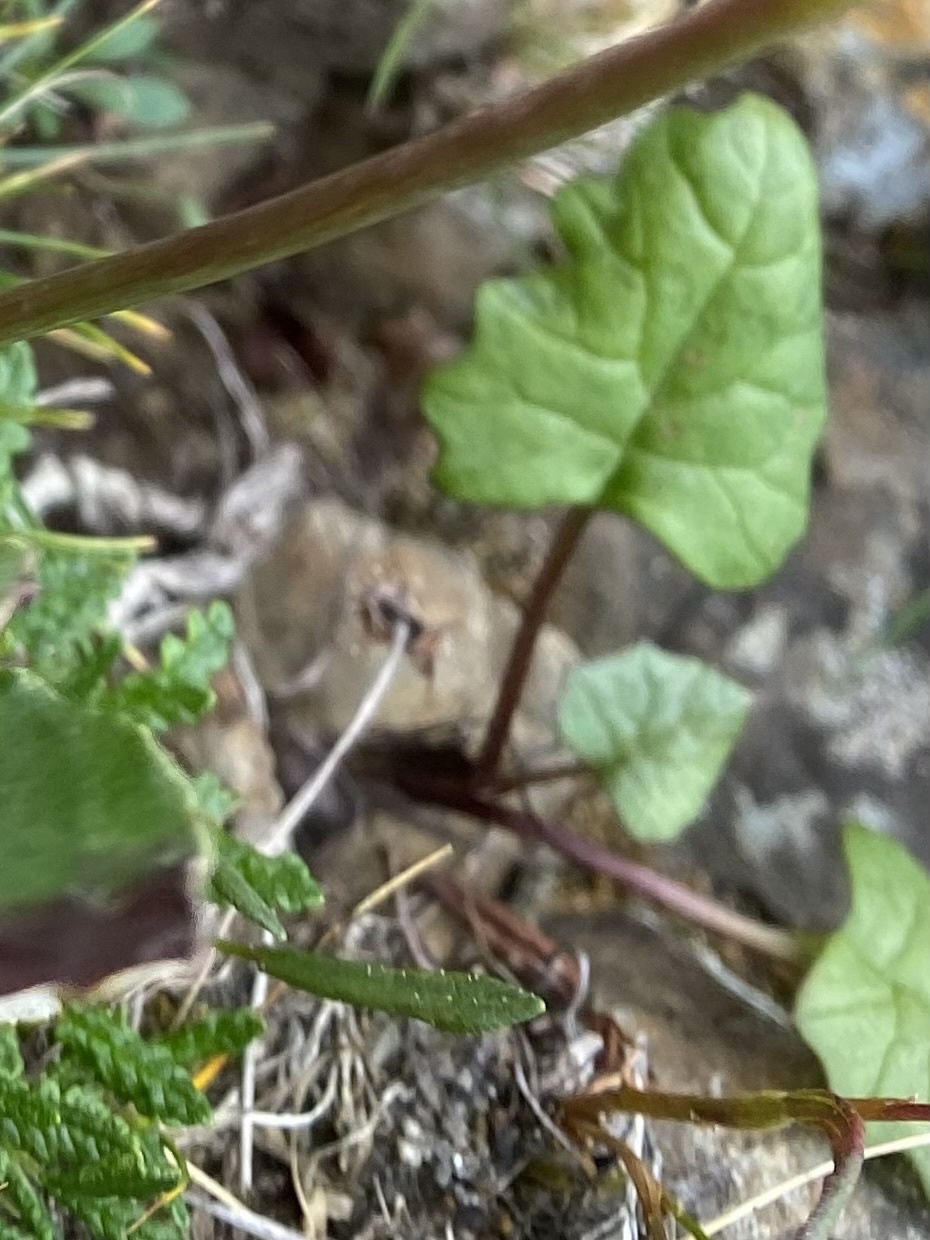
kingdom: Plantae
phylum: Tracheophyta
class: Magnoliopsida
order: Asterales
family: Asteraceae
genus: Endocellion
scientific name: Endocellion glaciale
